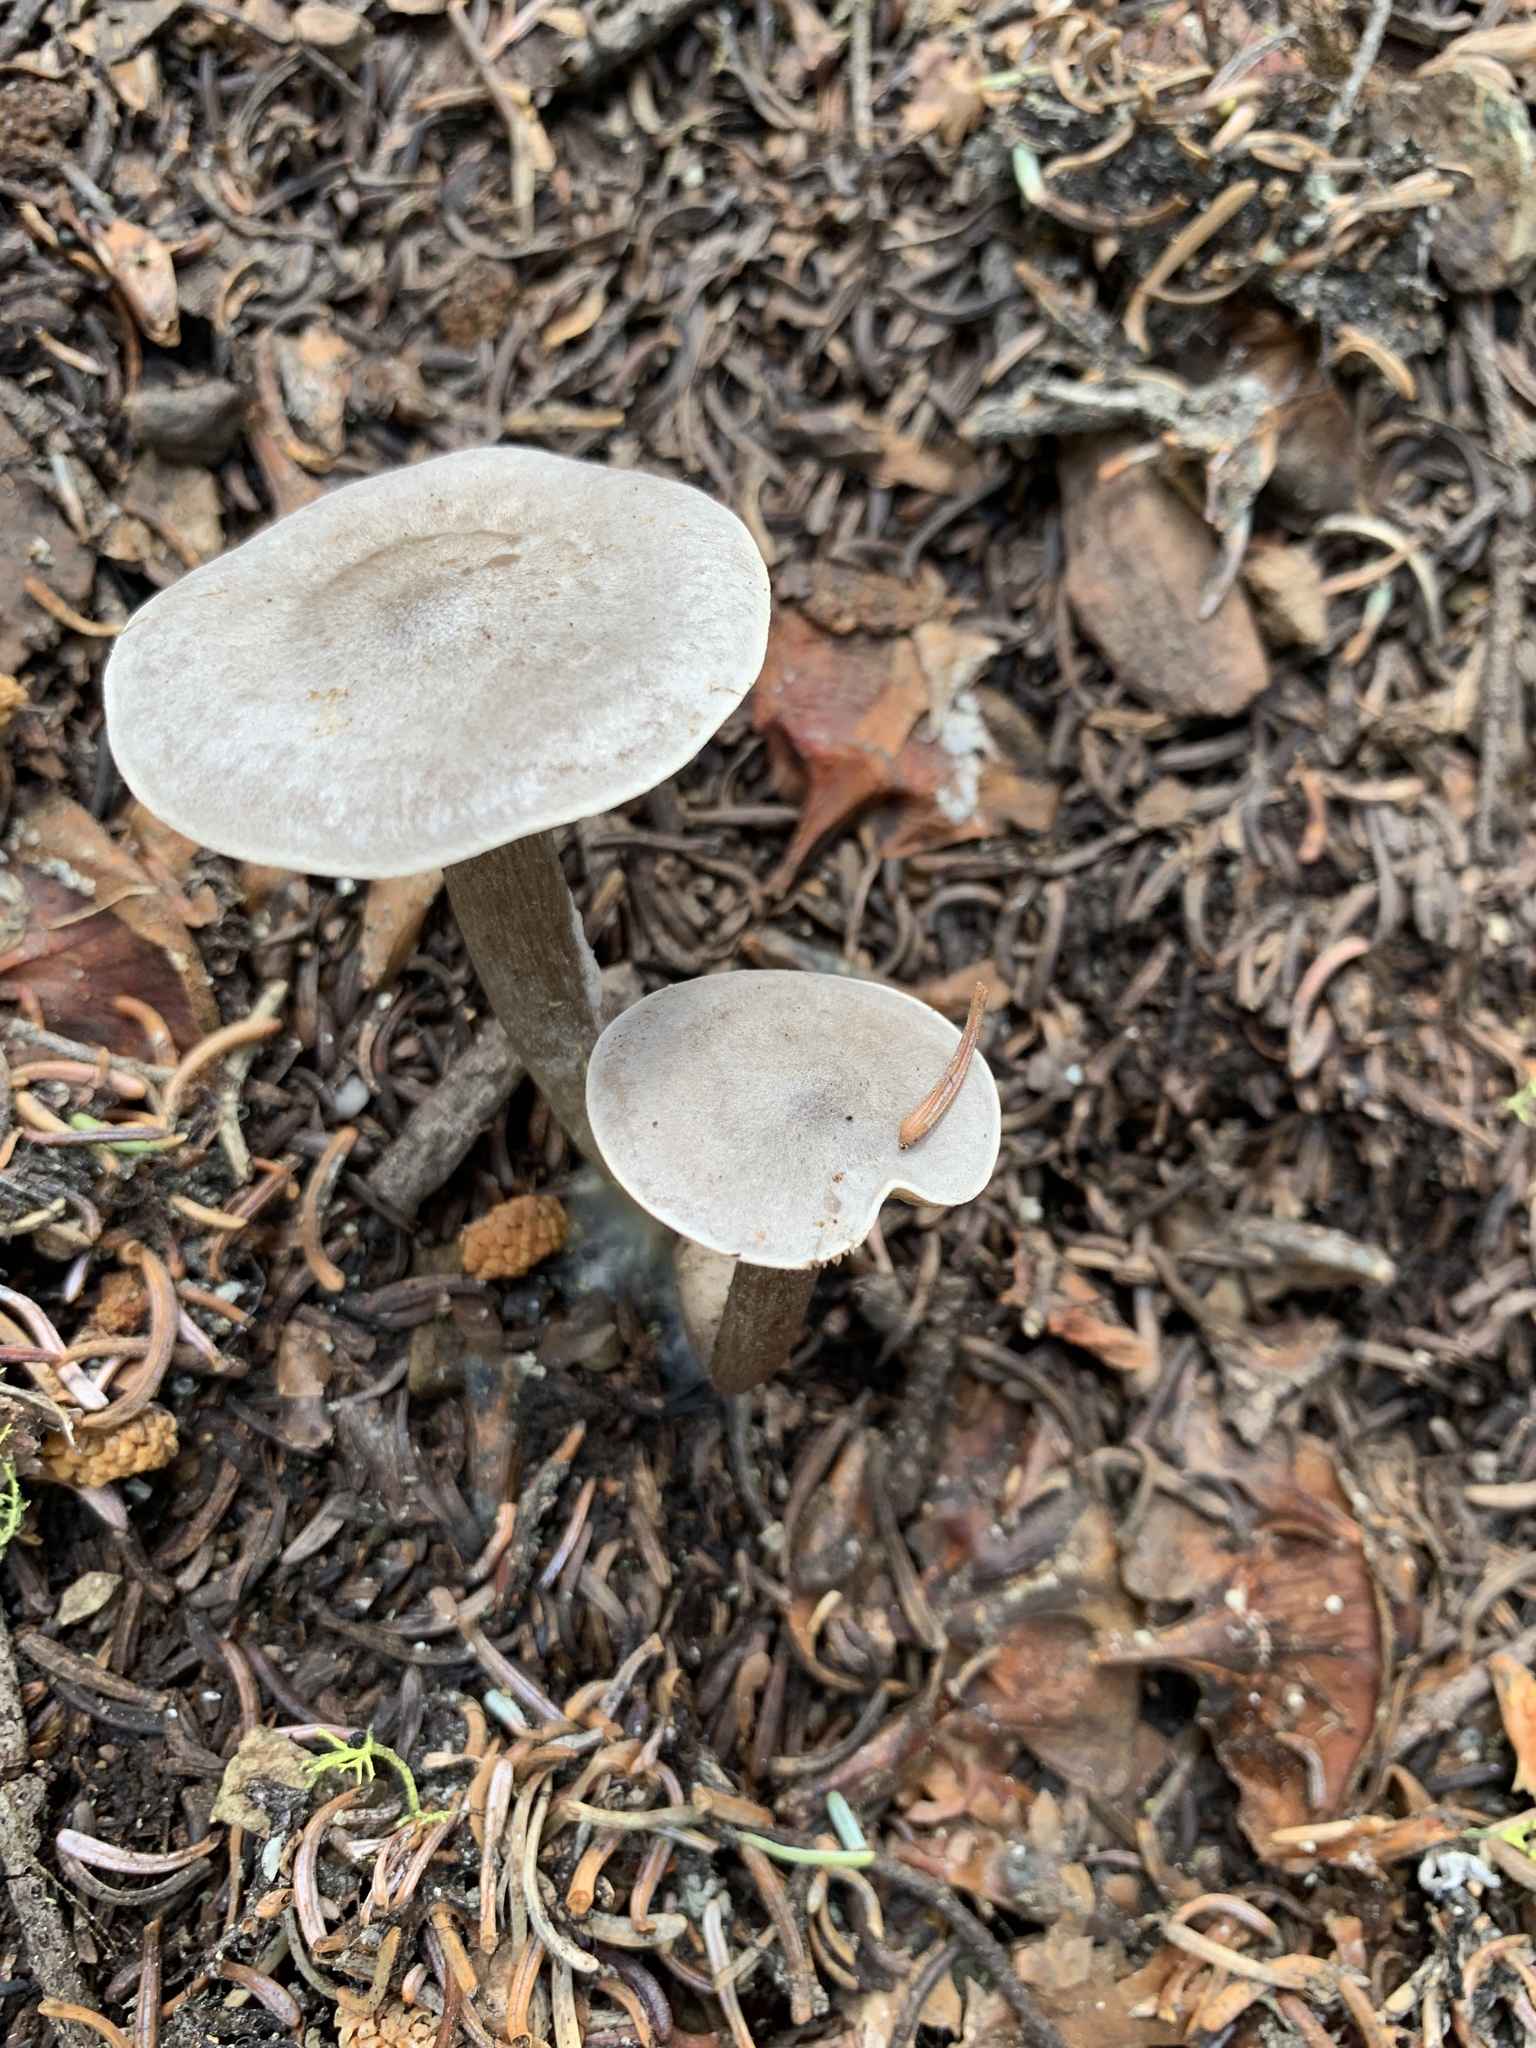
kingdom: Fungi
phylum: Basidiomycota
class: Agaricomycetes
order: Agaricales
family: Tricholomataceae
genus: Clitocybe
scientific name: Clitocybe glacialis
